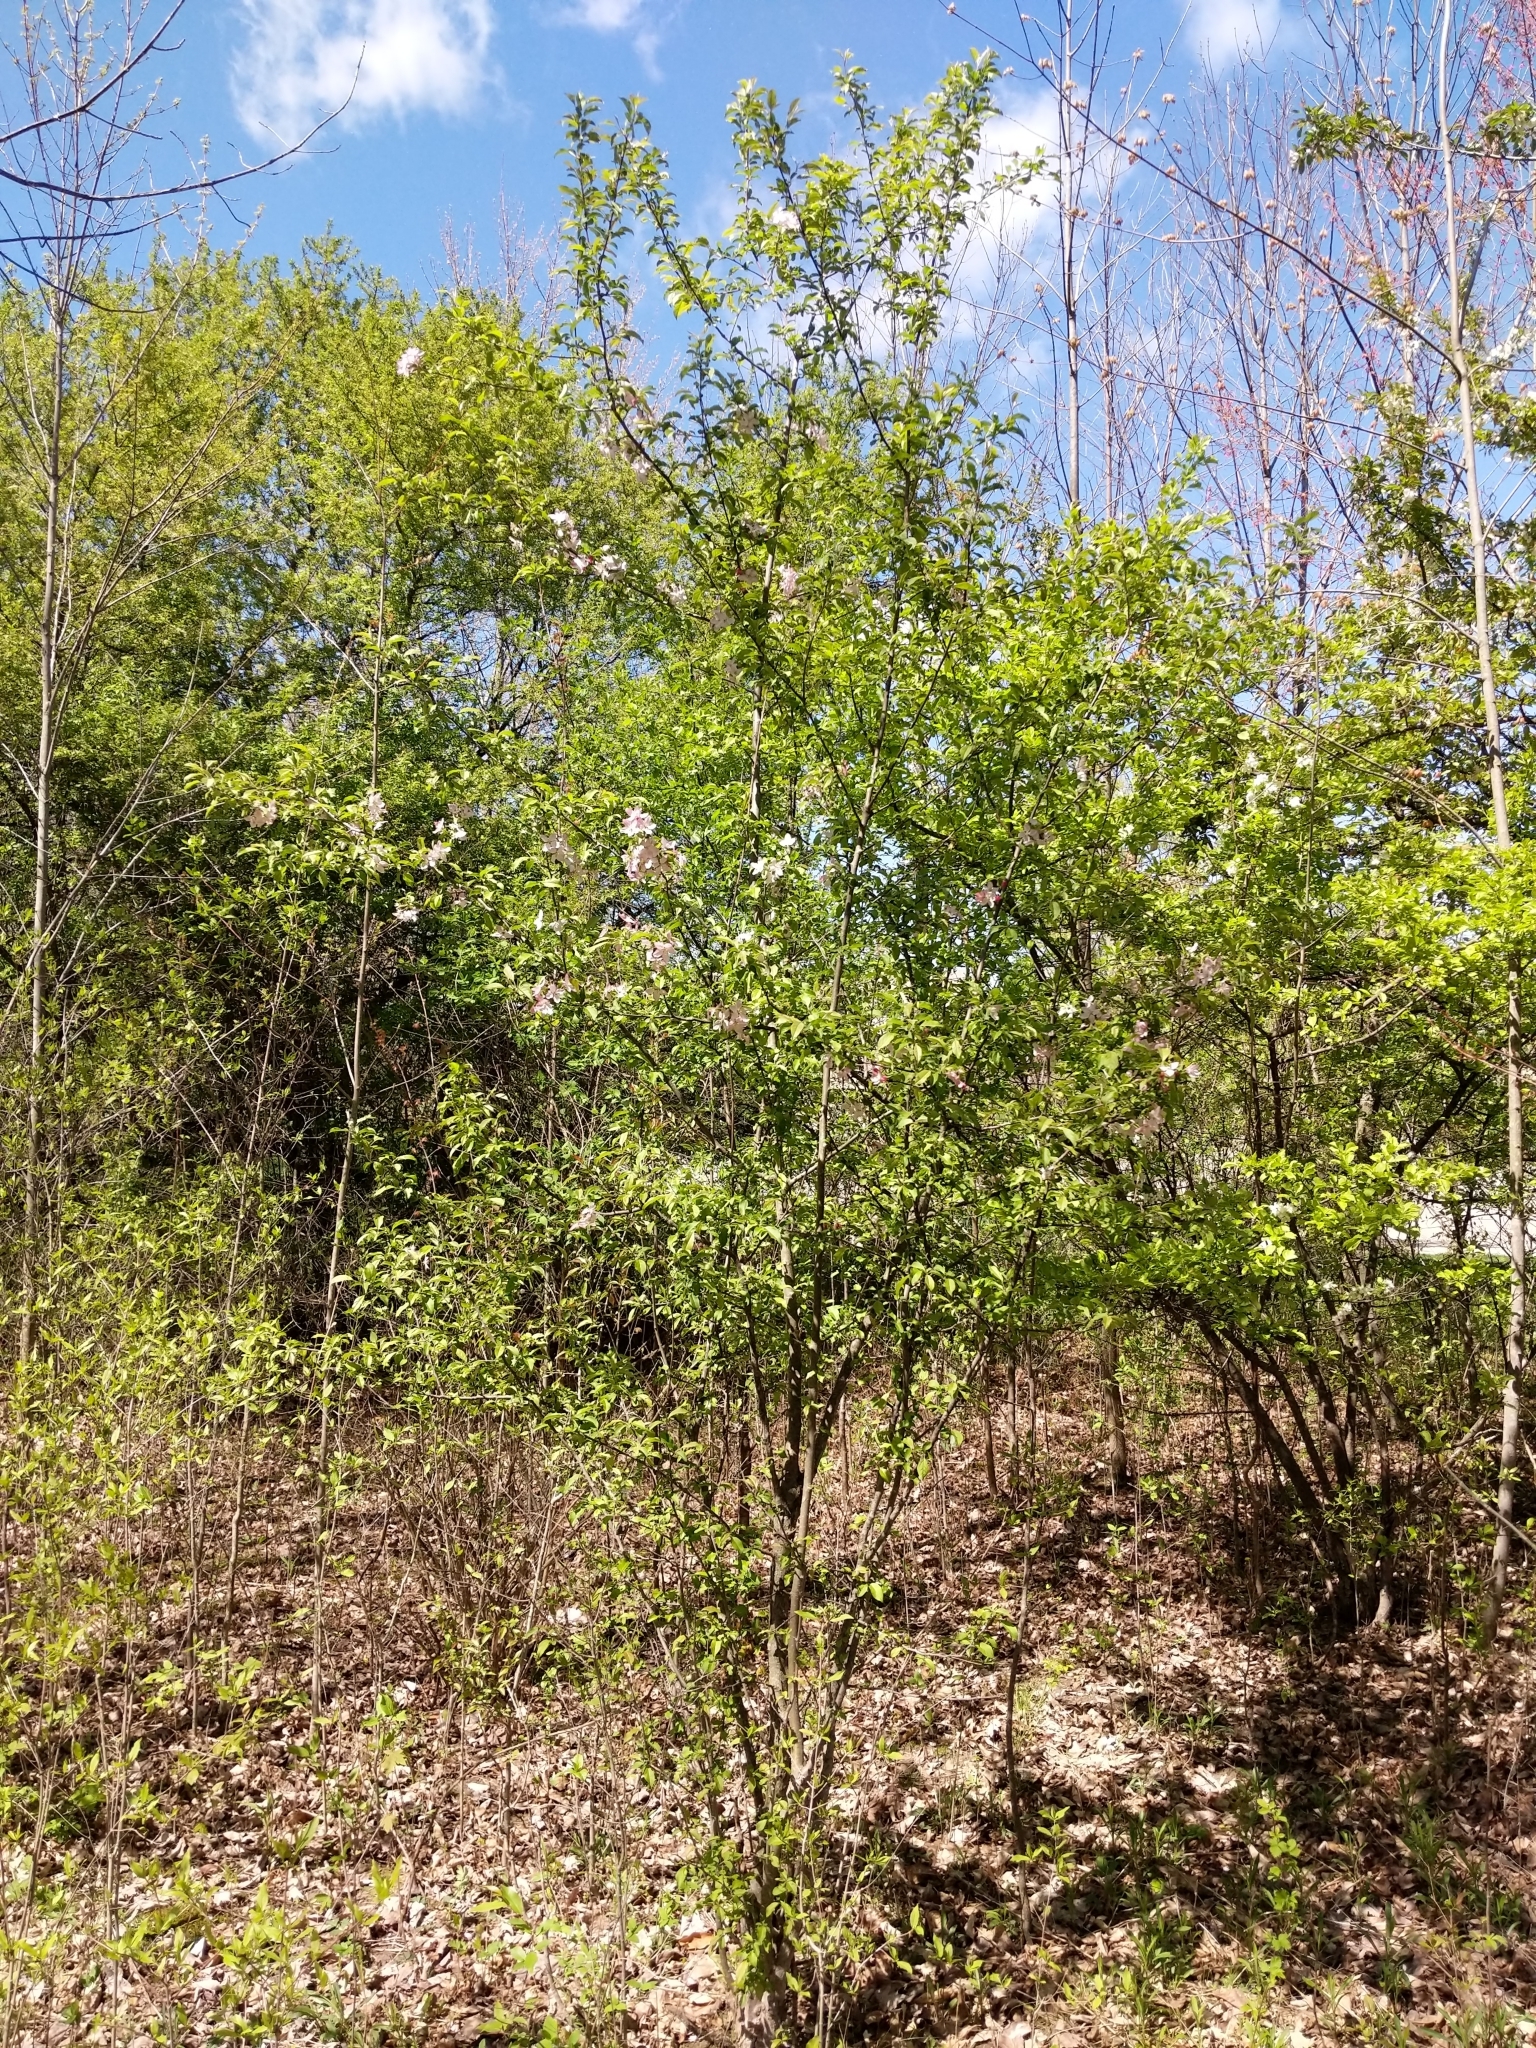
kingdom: Plantae
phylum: Tracheophyta
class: Magnoliopsida
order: Rosales
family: Rosaceae
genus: Malus
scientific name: Malus domestica
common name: Apple
